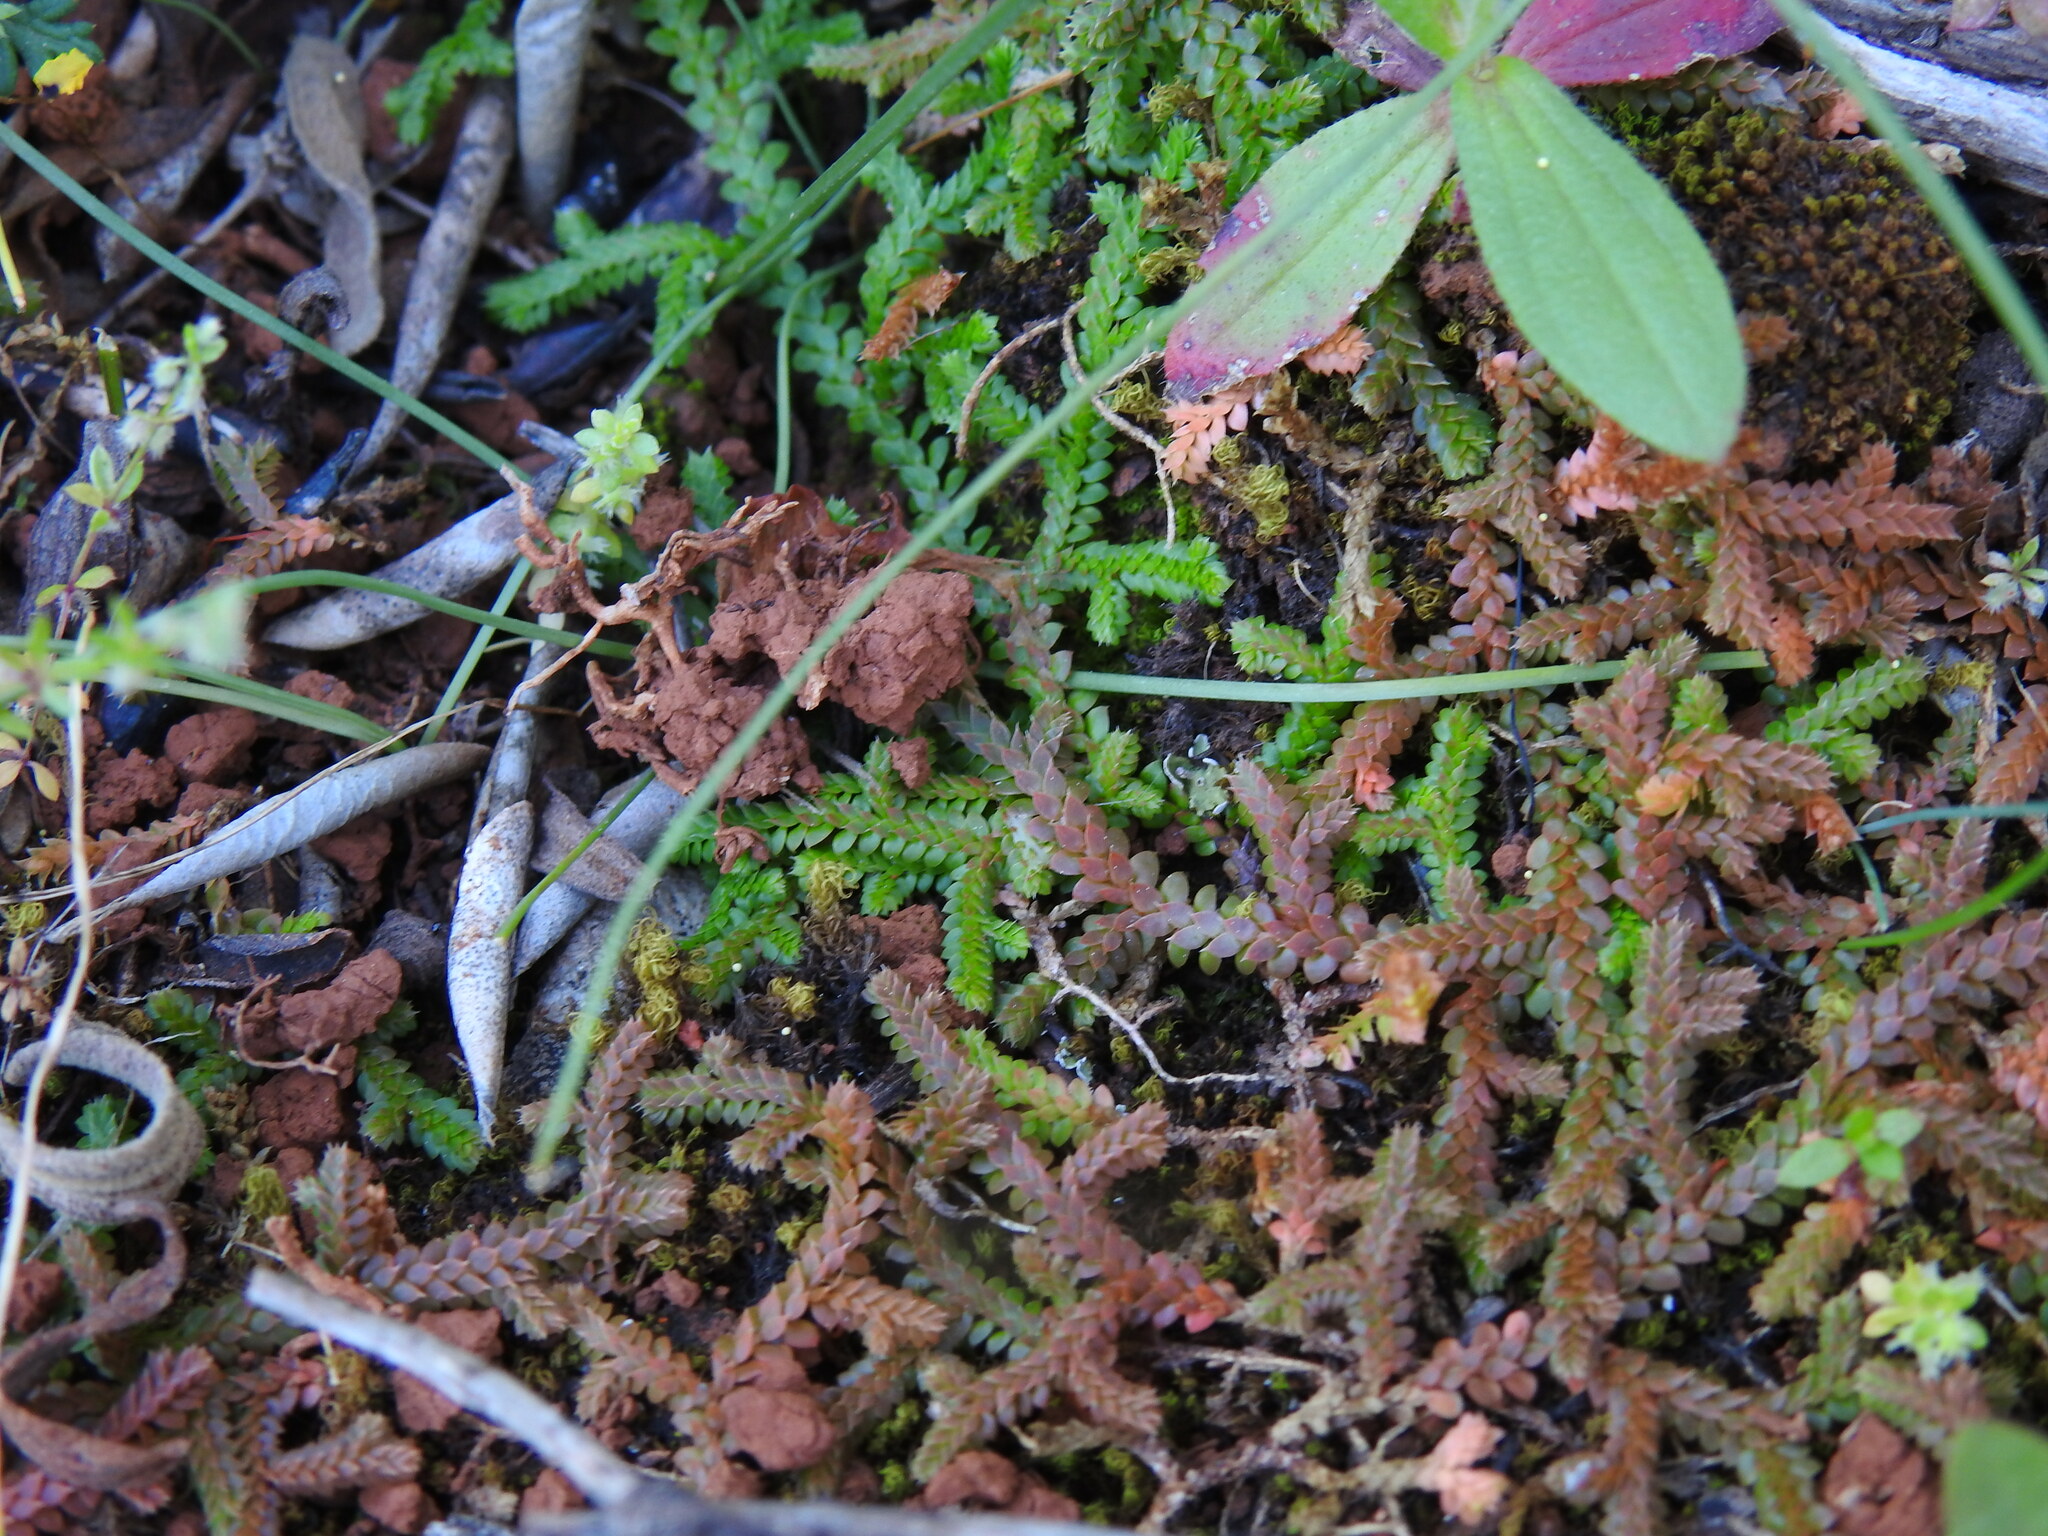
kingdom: Plantae
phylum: Tracheophyta
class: Lycopodiopsida
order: Selaginellales
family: Selaginellaceae
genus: Selaginella
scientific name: Selaginella denticulata
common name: Toothed-leaved clubmoss
